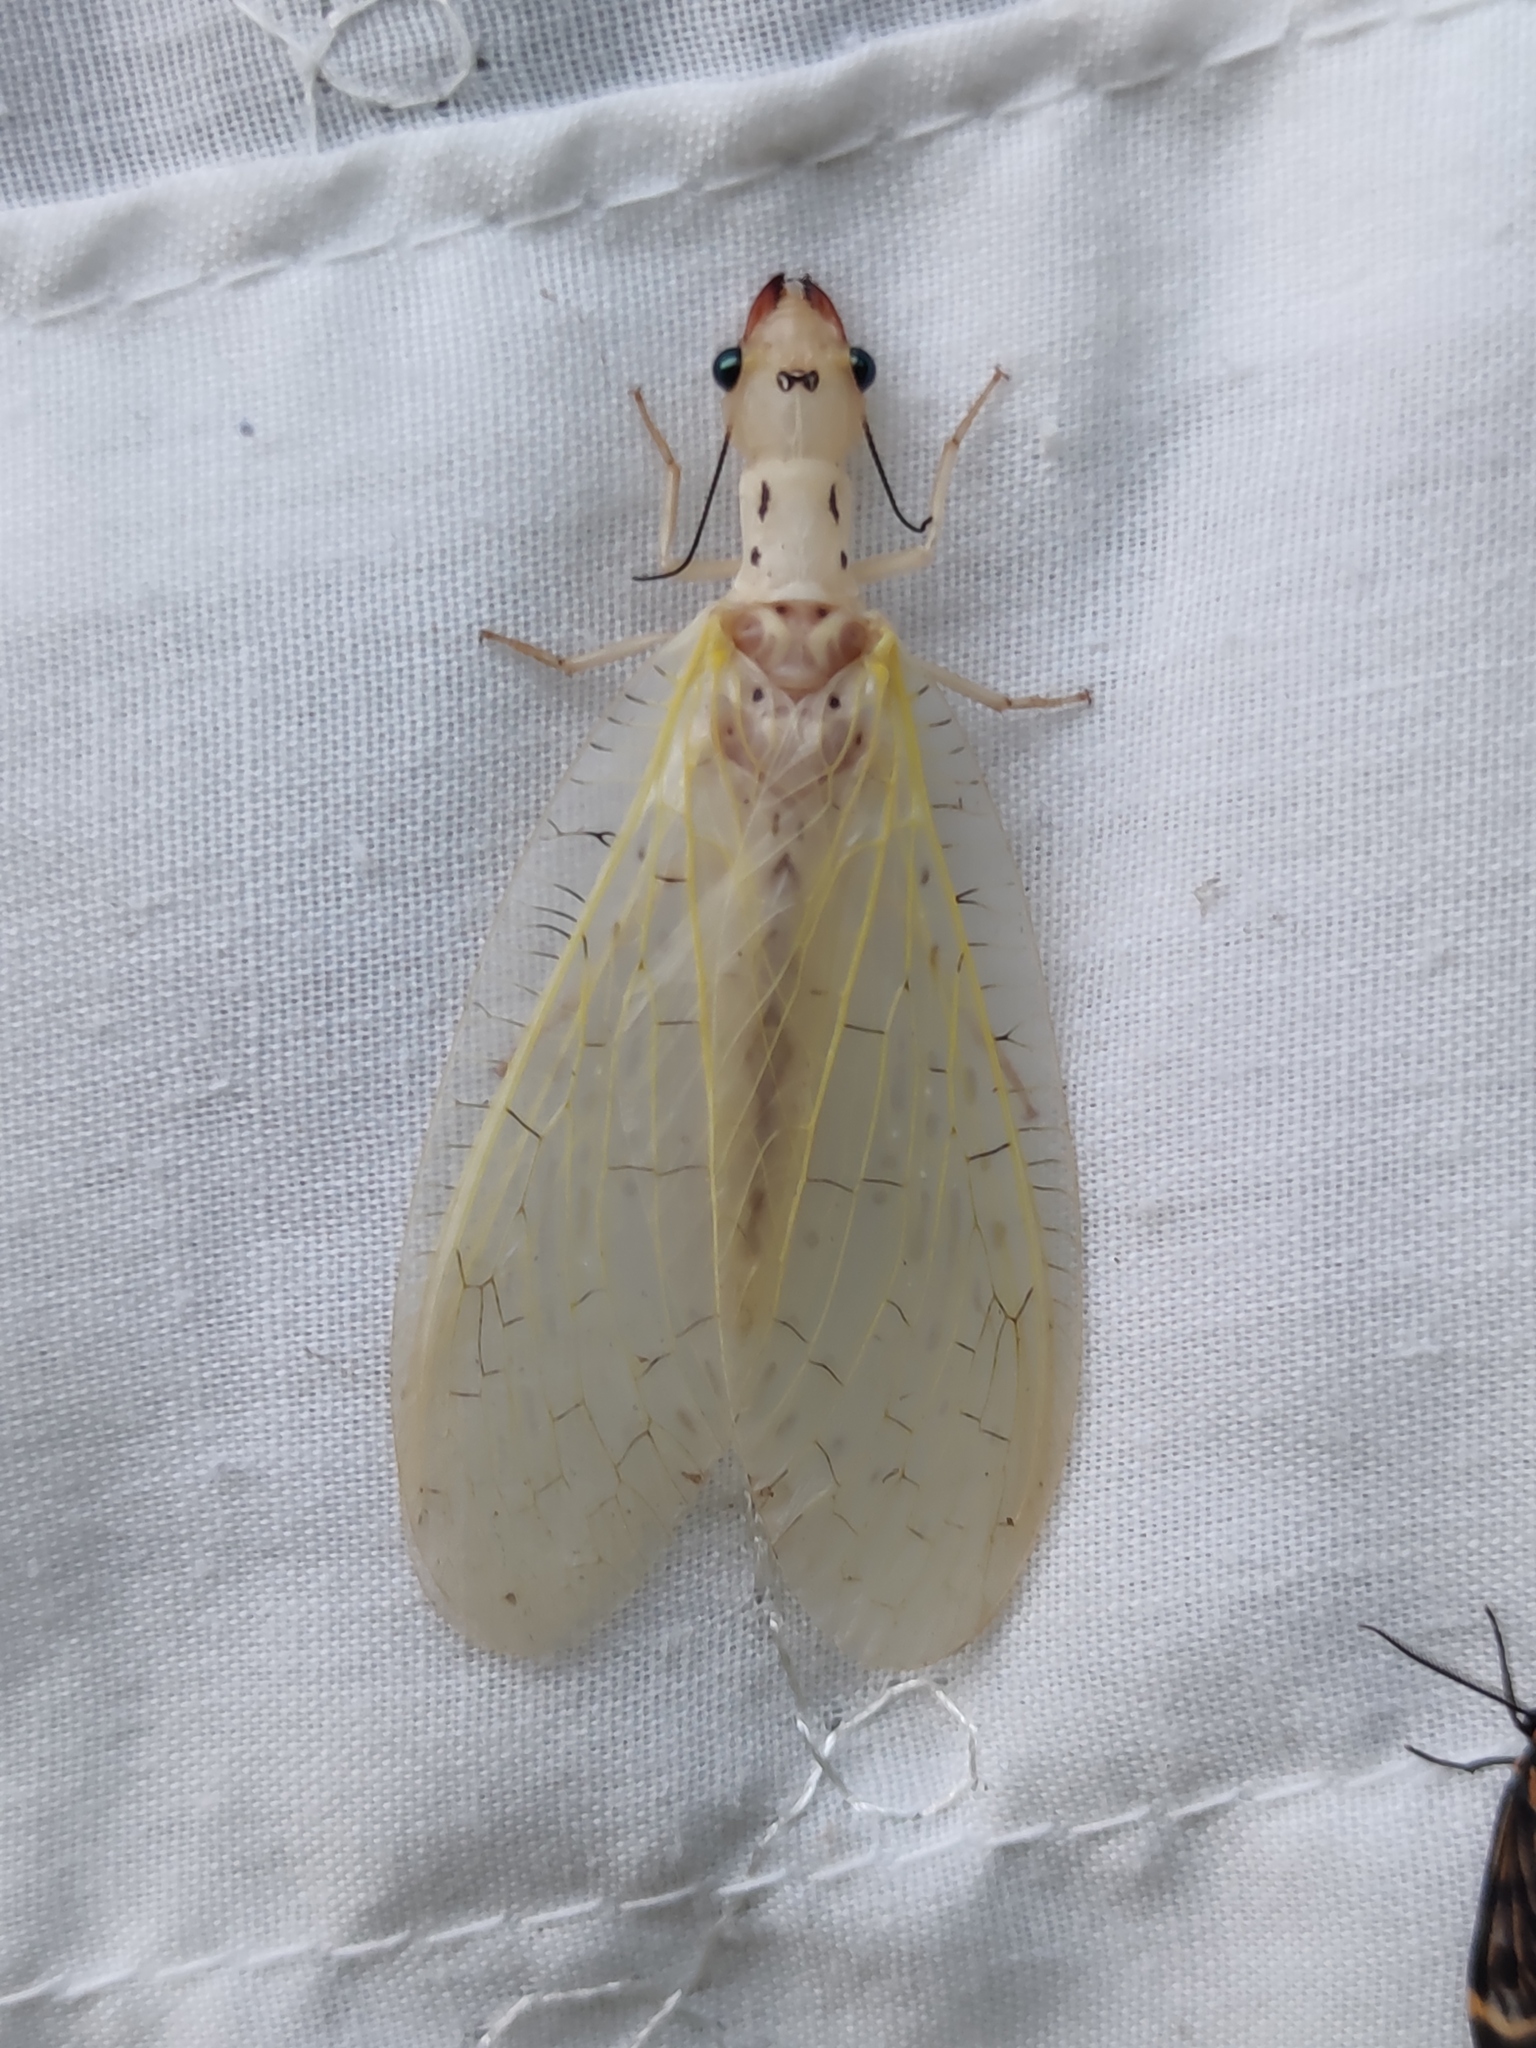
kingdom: Animalia
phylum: Arthropoda
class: Insecta
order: Megaloptera
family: Corydalidae
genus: Chloronia
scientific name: Chloronia mexicana
